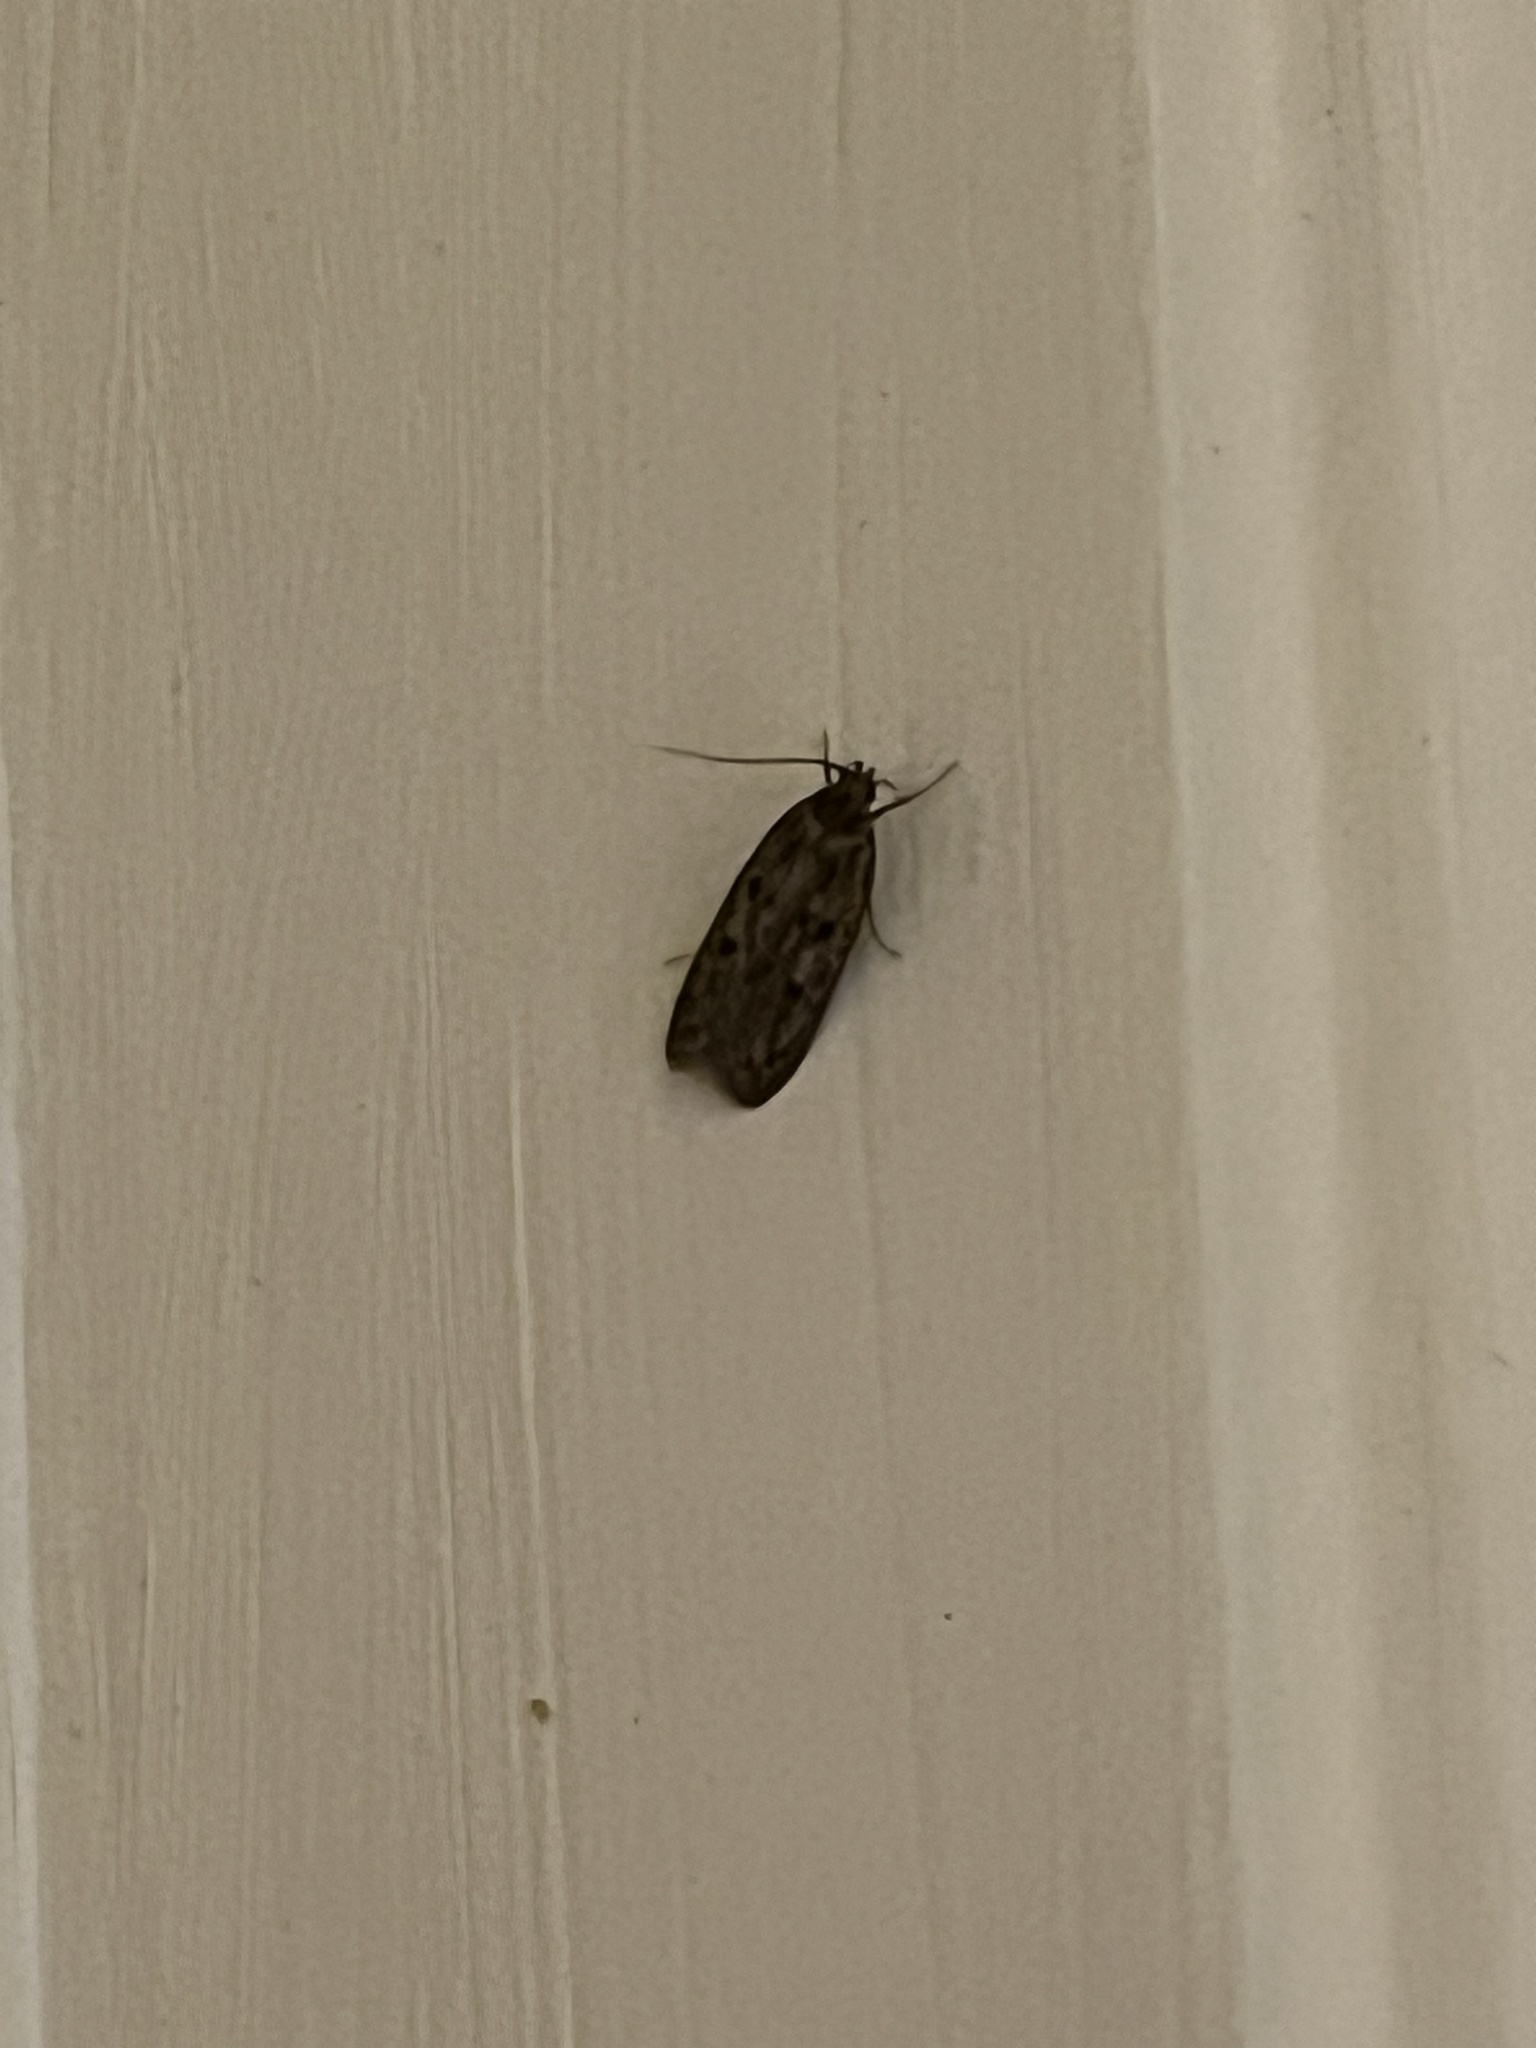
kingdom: Animalia
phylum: Arthropoda
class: Insecta
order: Lepidoptera
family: Oecophoridae
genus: Hofmannophila
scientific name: Hofmannophila pseudospretella
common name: Brown house moth
